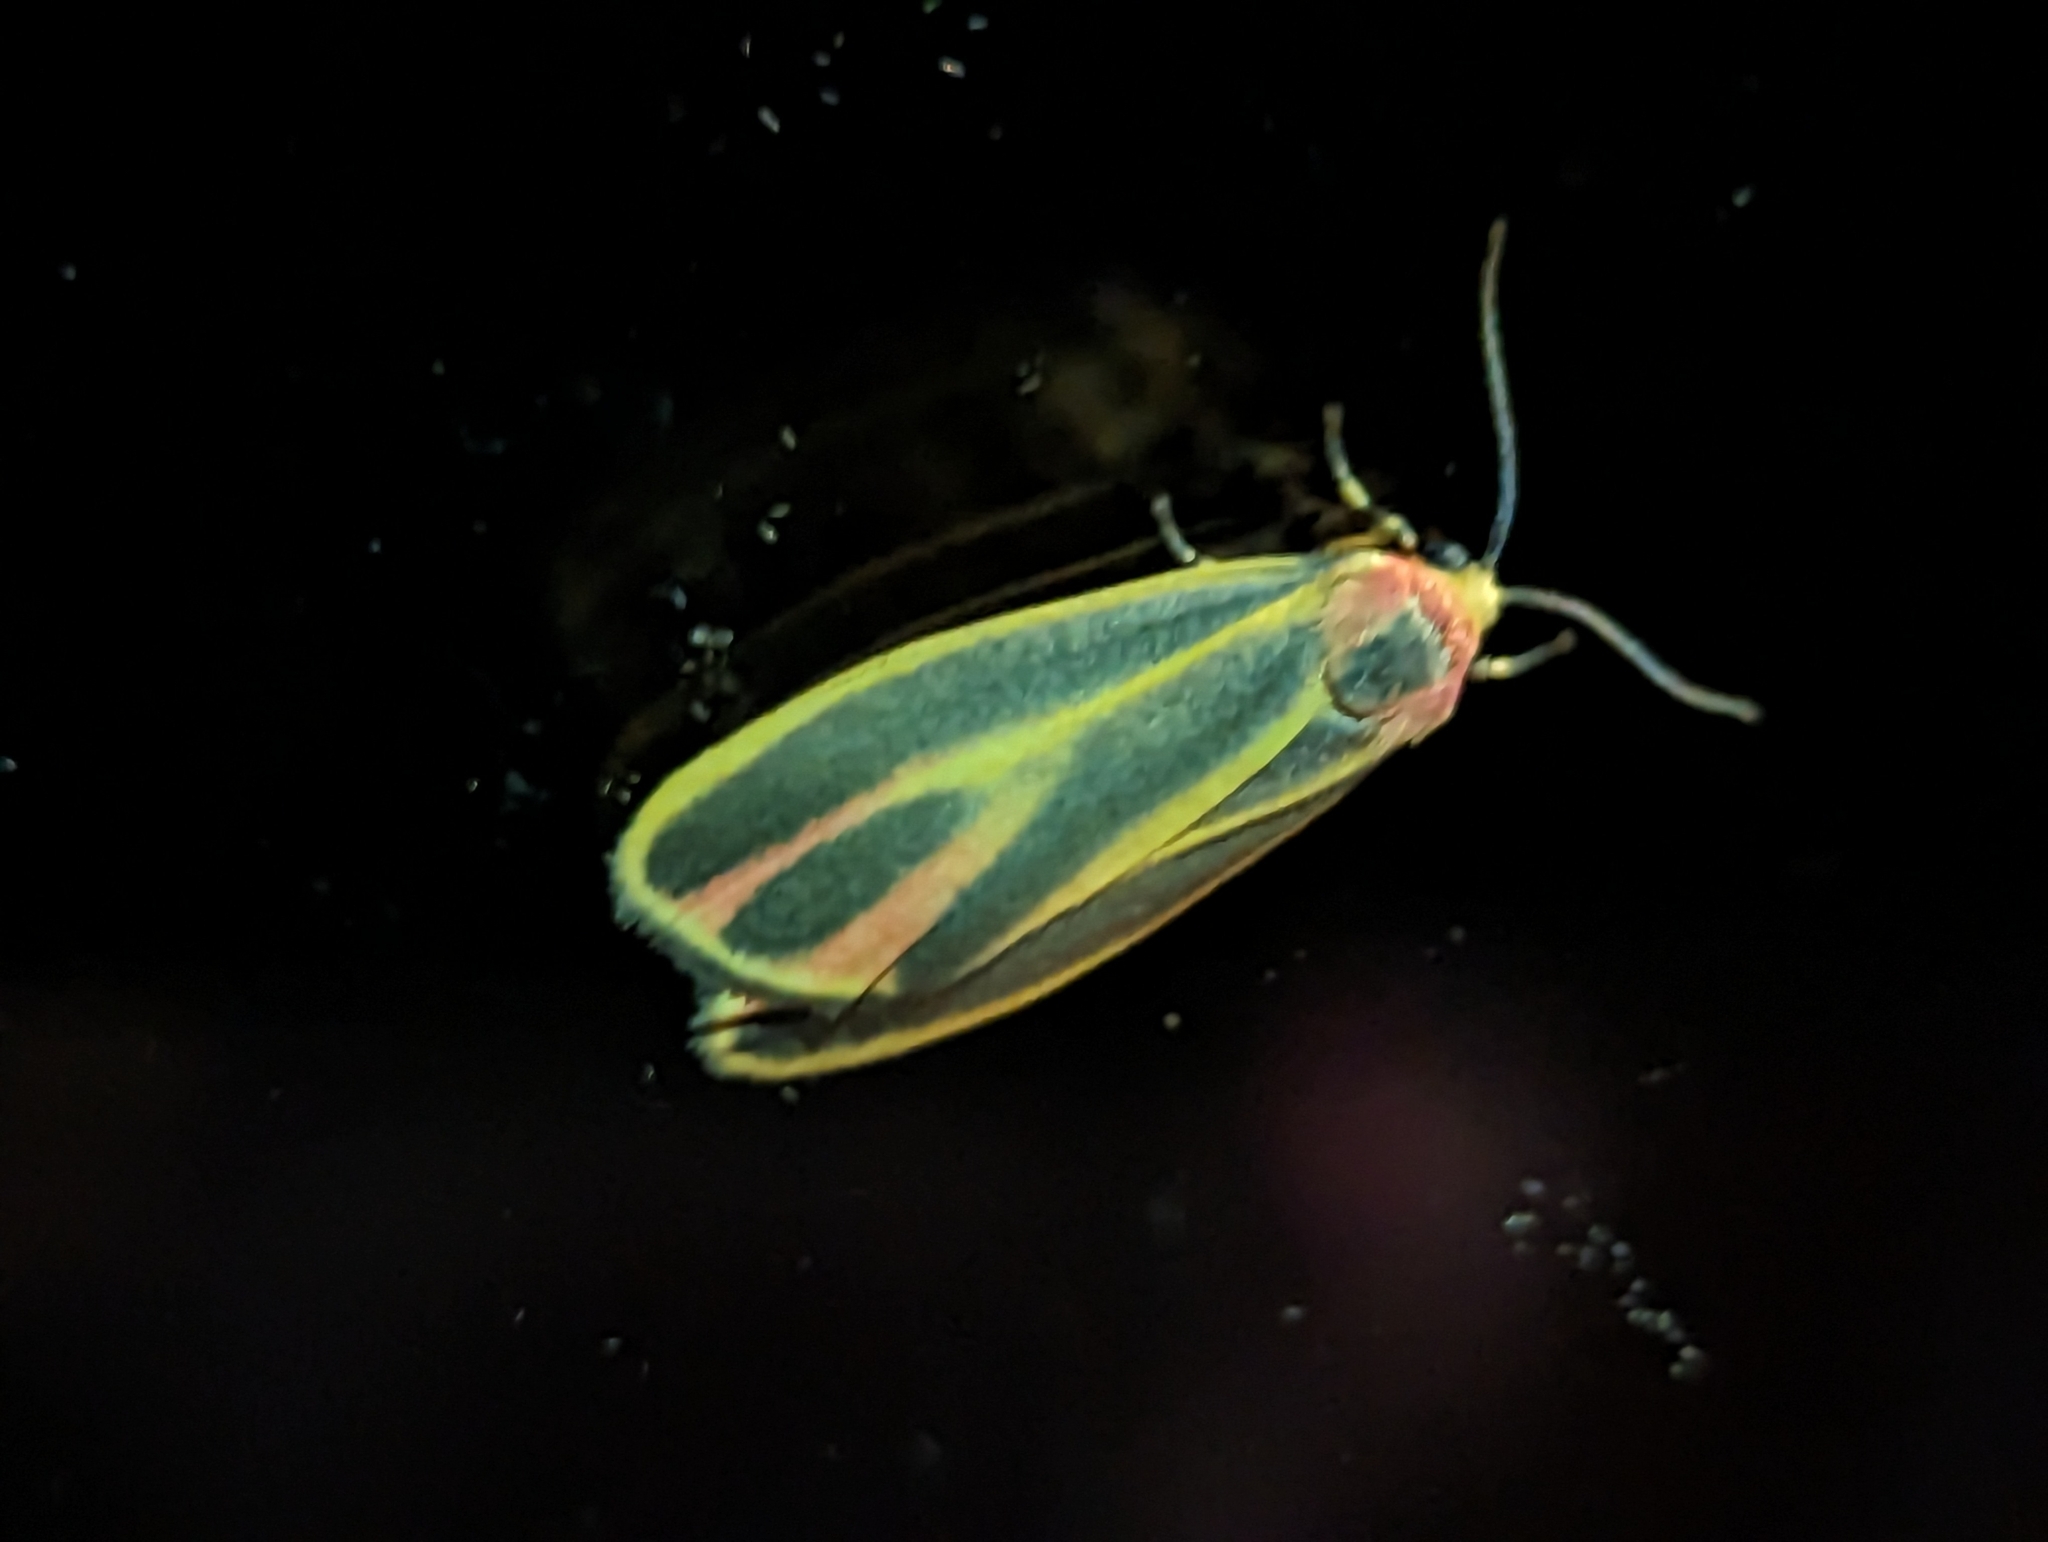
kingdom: Animalia
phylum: Arthropoda
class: Insecta
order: Lepidoptera
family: Erebidae
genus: Hypoprepia
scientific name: Hypoprepia fucosa
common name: Painted lichen moth
